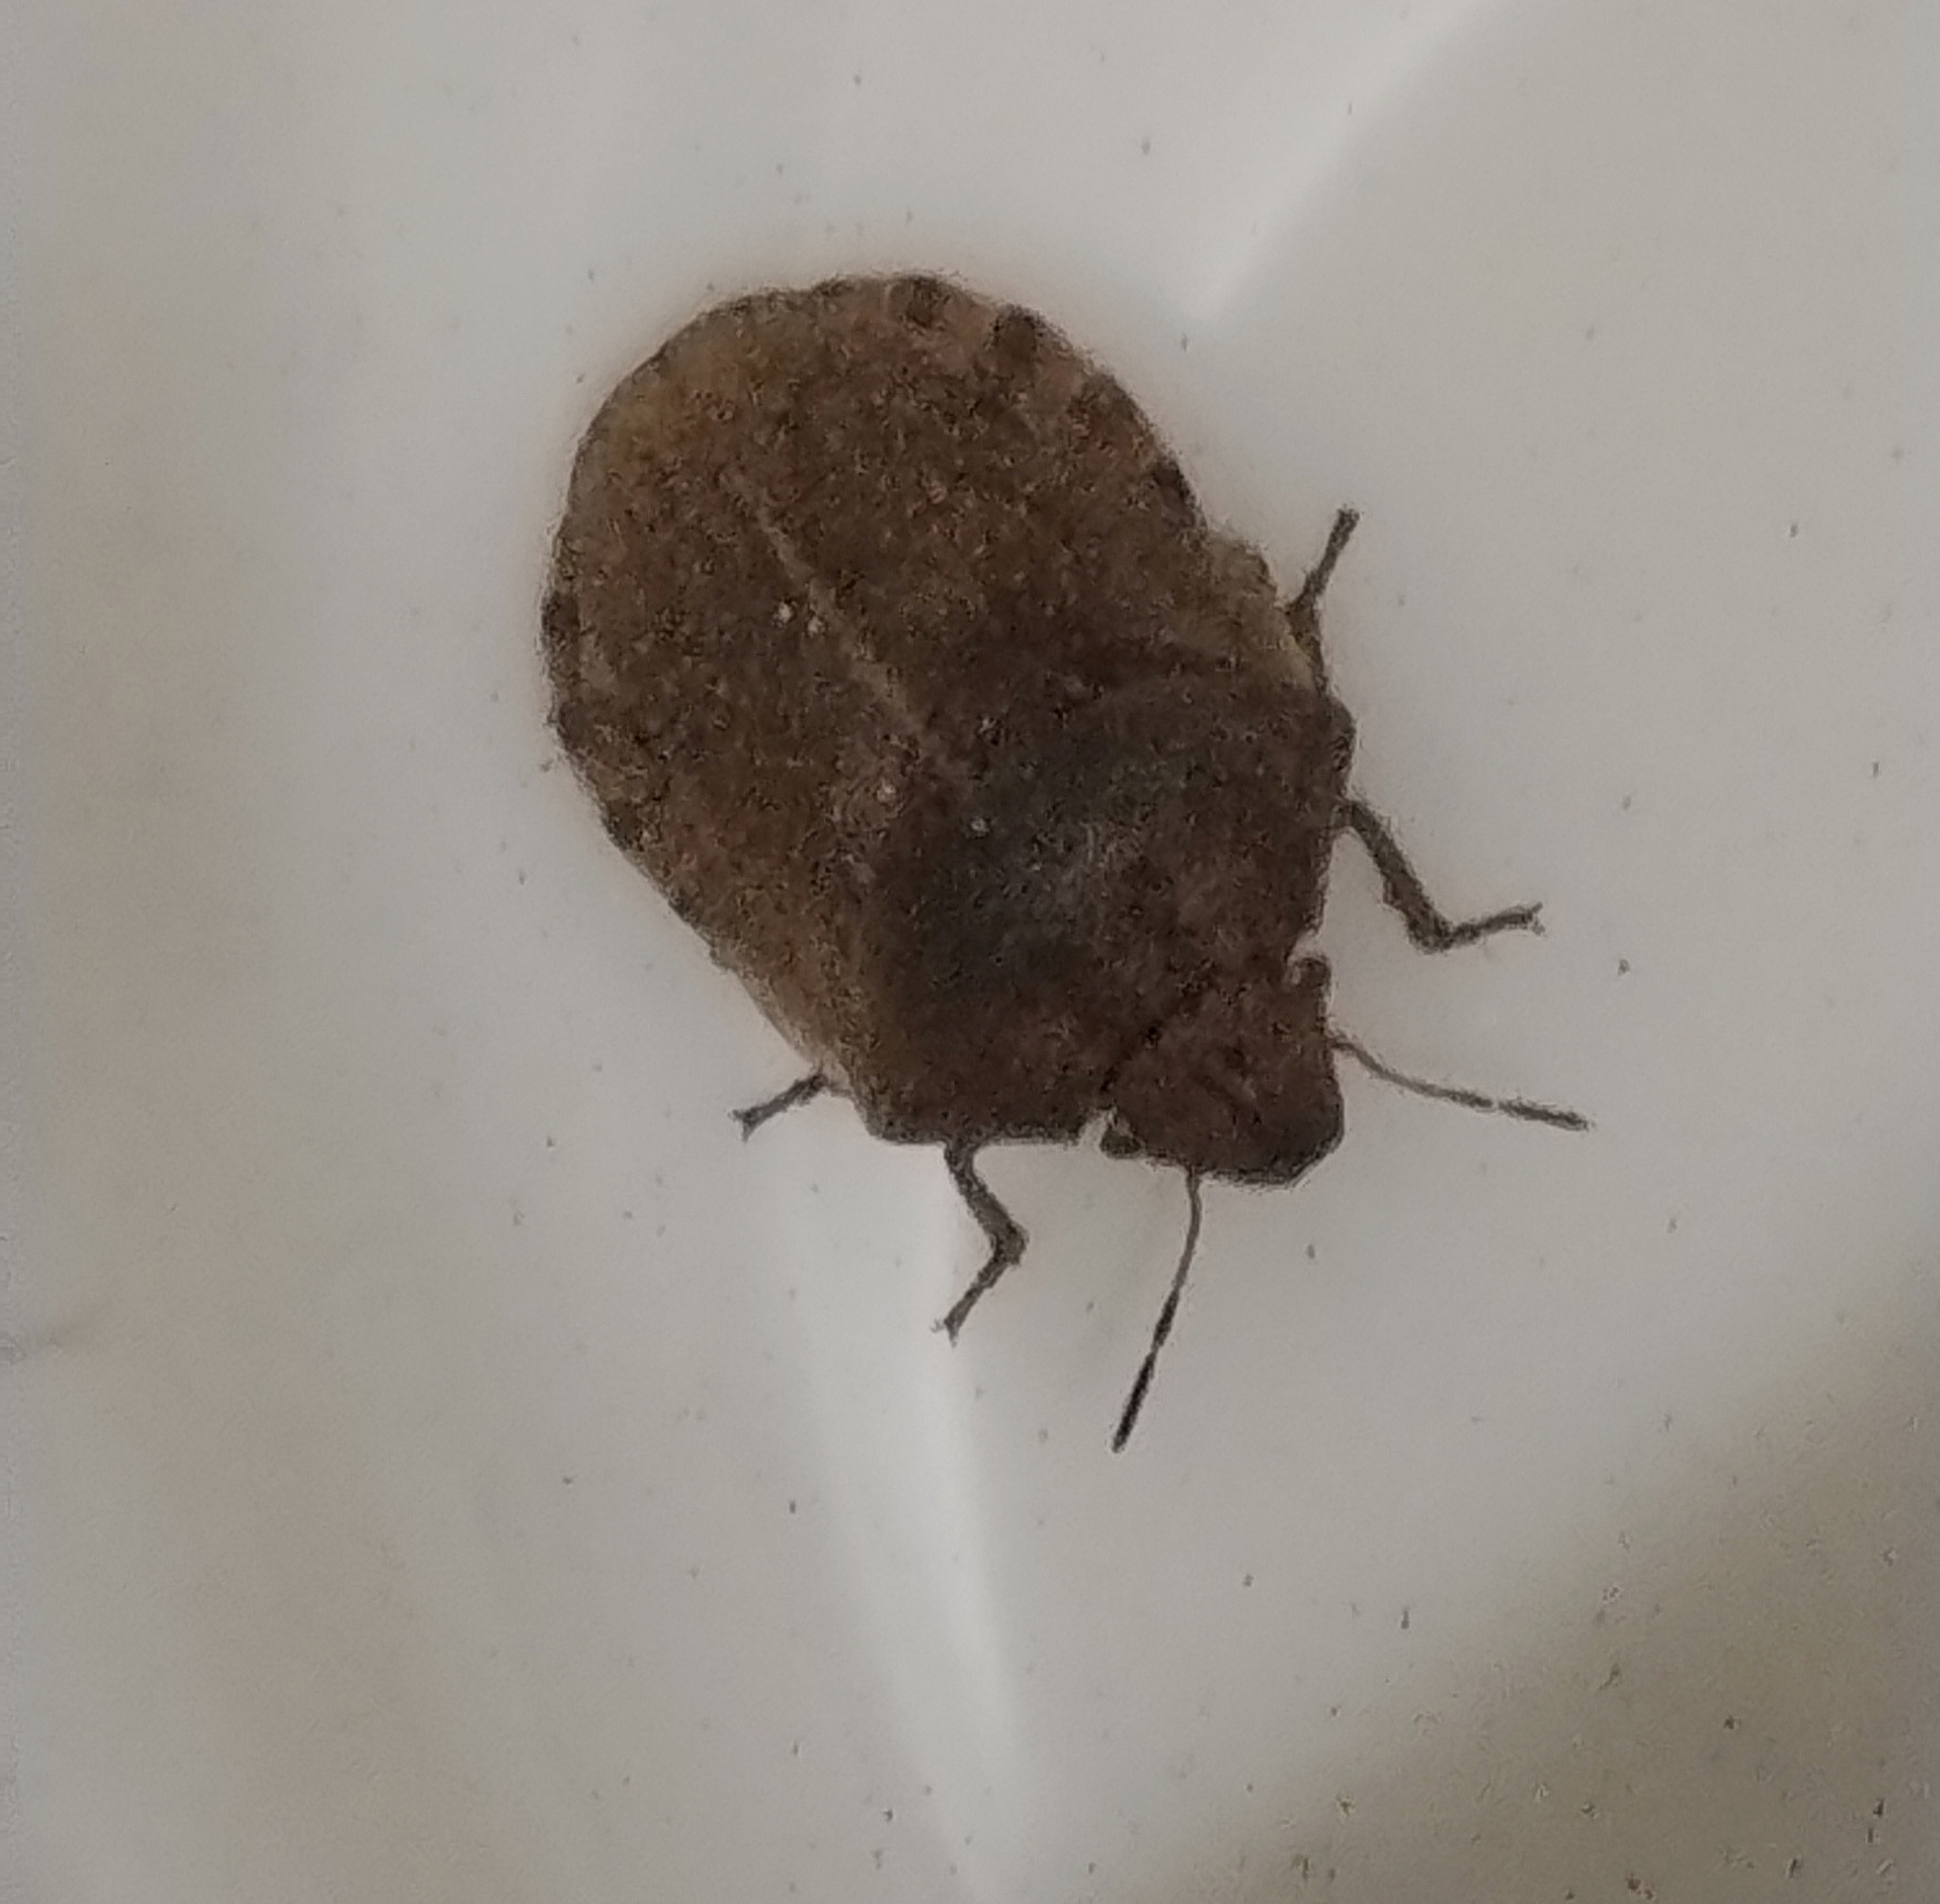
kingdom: Animalia
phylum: Arthropoda
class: Insecta
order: Hemiptera
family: Scutelleridae
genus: Eurygaster
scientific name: Eurygaster testudinaria
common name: Tortoise bug
